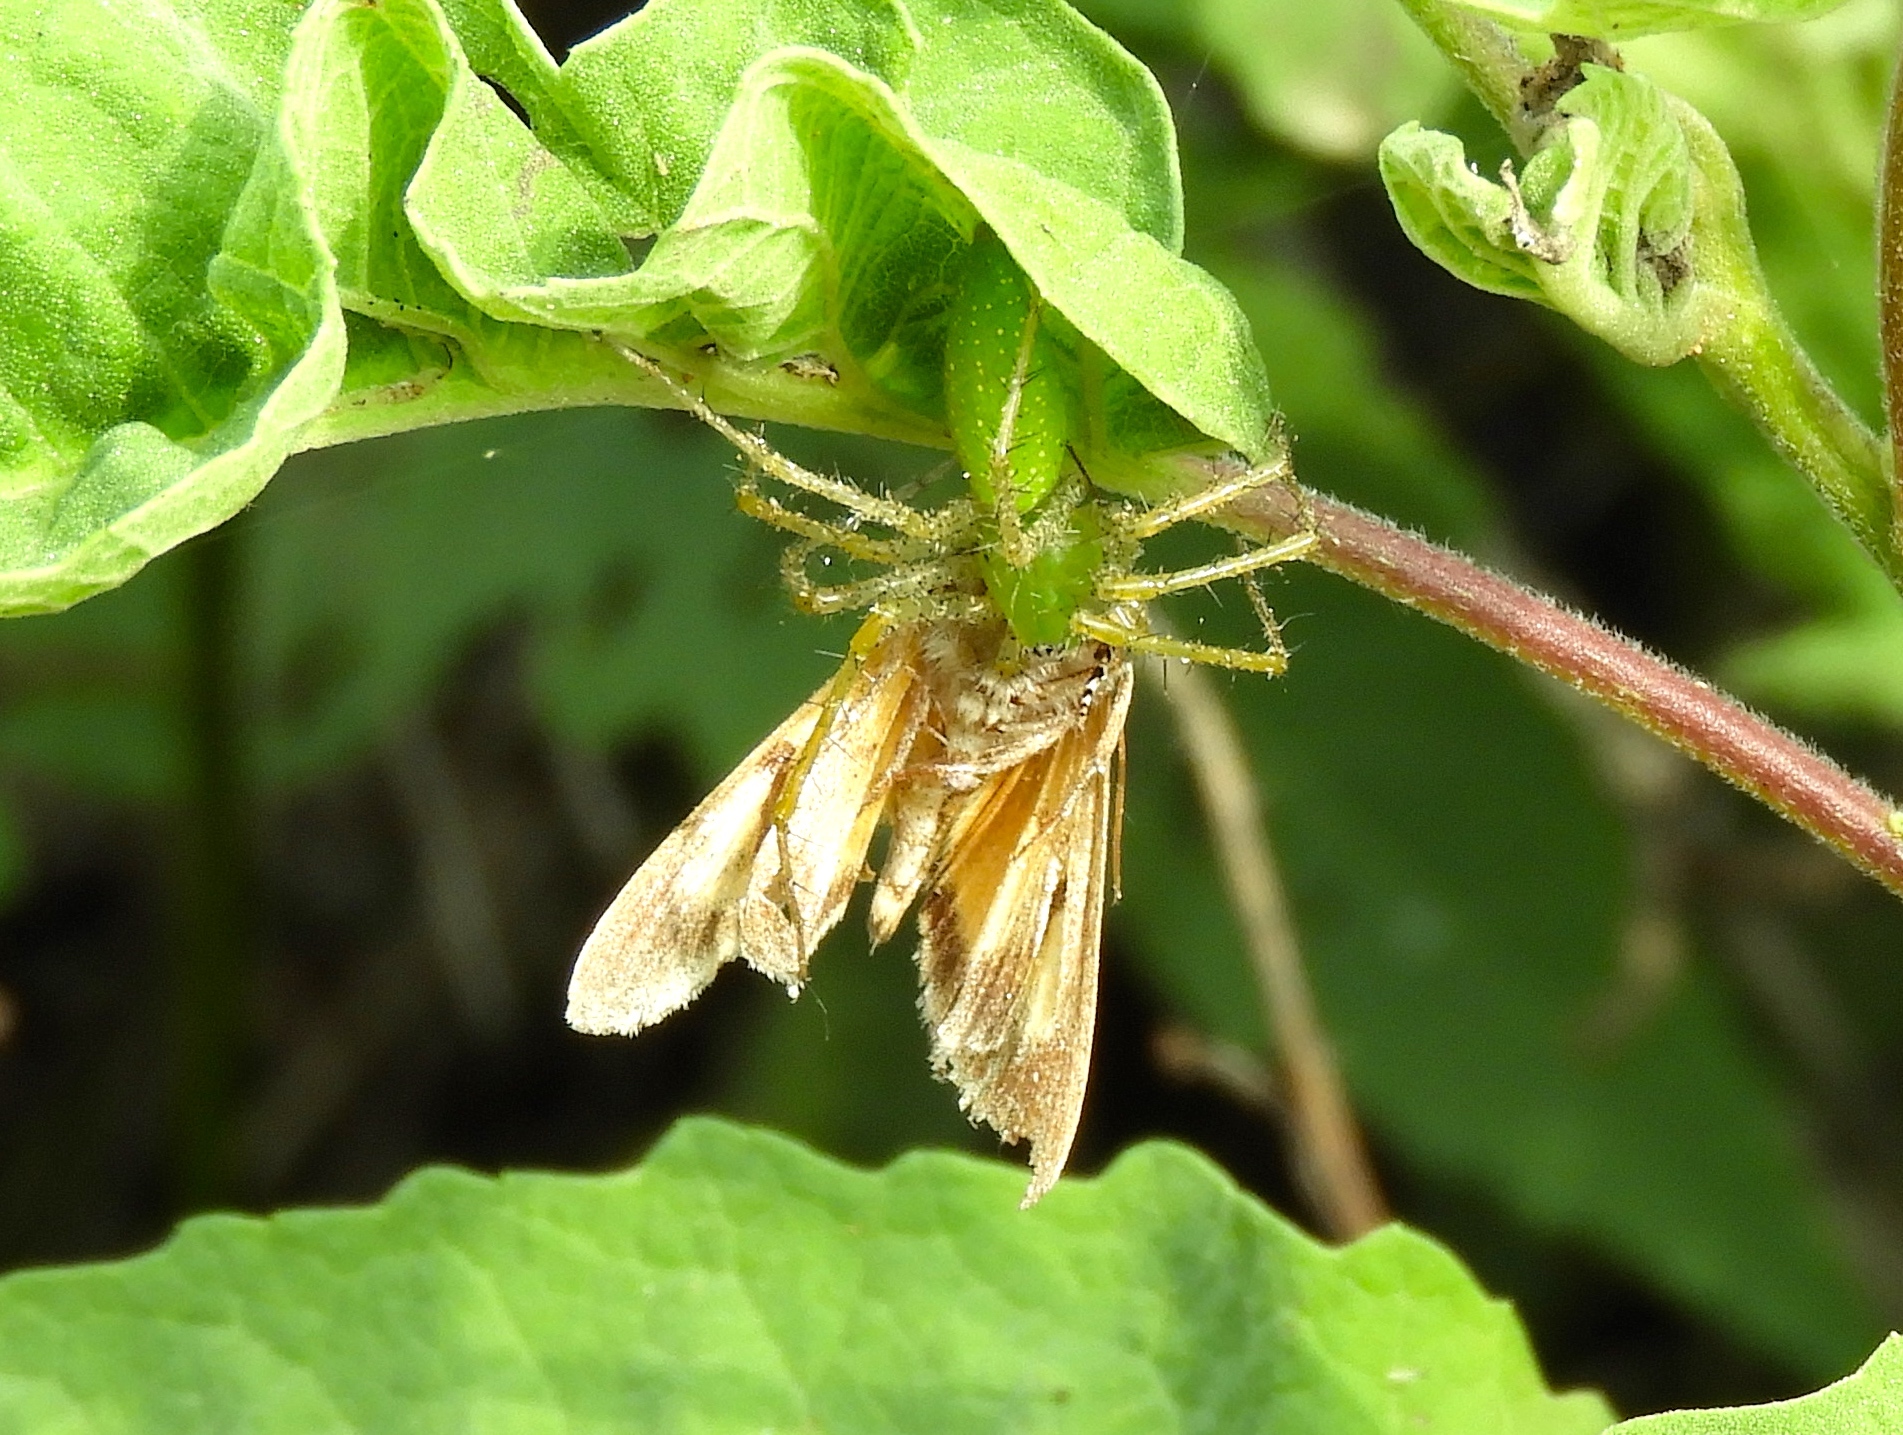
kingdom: Animalia
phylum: Arthropoda
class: Arachnida
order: Araneae
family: Oxyopidae
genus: Peucetia
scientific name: Peucetia longipalpis
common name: Lynx spiders
